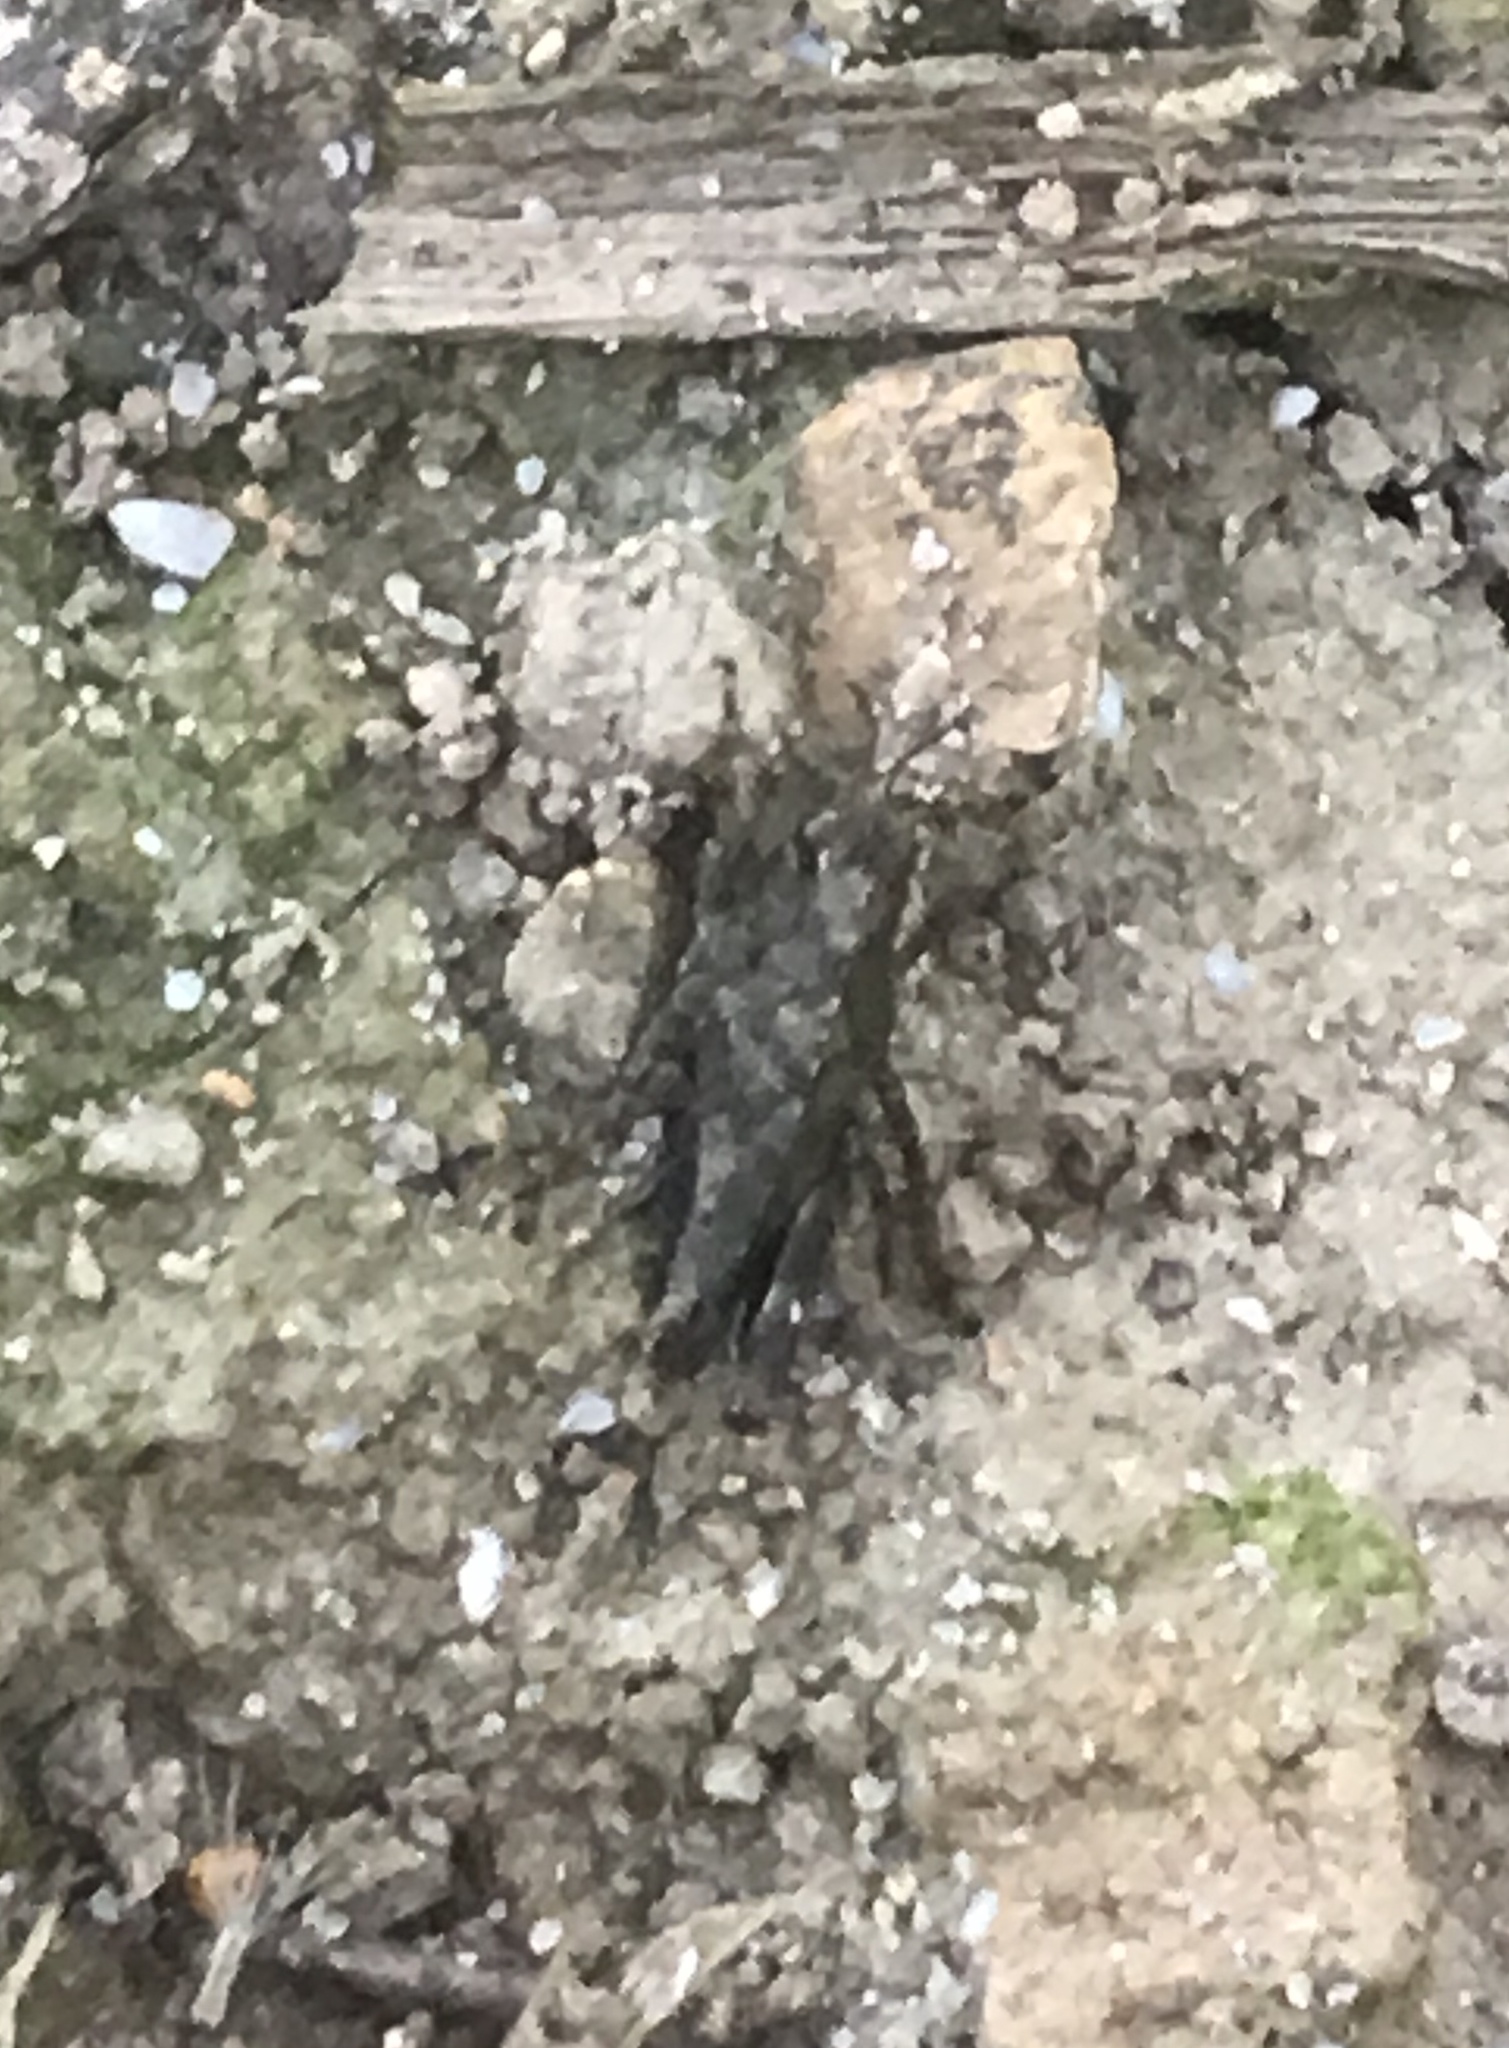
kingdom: Animalia
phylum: Arthropoda
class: Insecta
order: Orthoptera
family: Tetrigidae
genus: Neotettix
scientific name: Neotettix proavus
